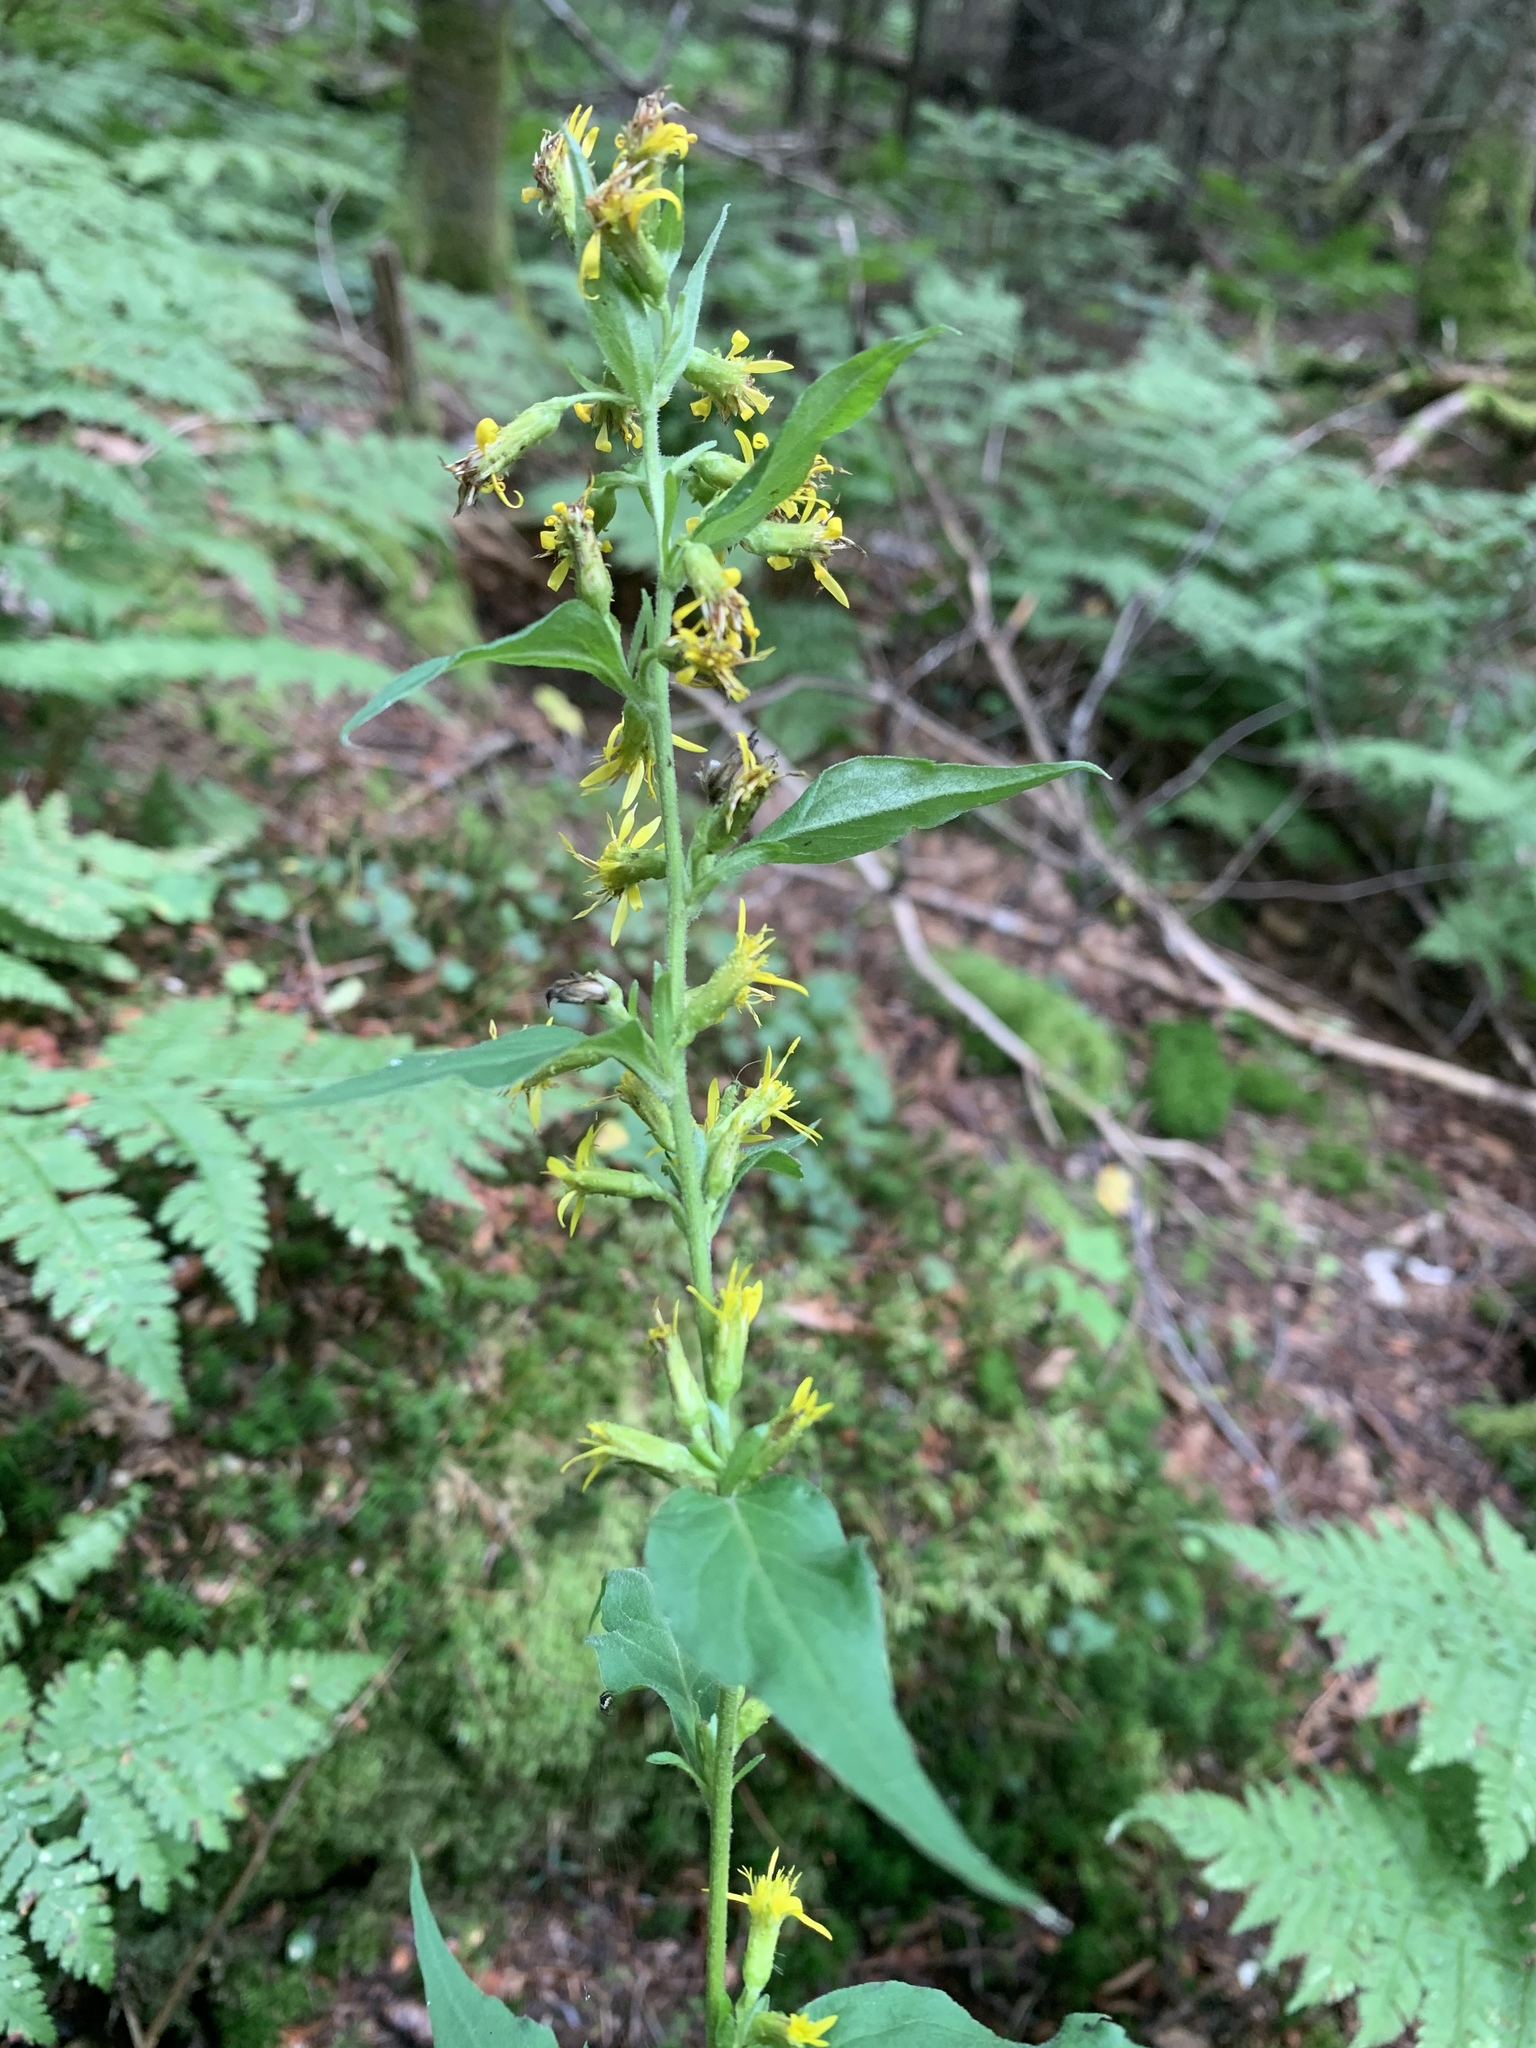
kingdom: Plantae
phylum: Tracheophyta
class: Magnoliopsida
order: Asterales
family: Asteraceae
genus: Solidago
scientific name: Solidago flexicaulis
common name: Zig-zag goldenrod
